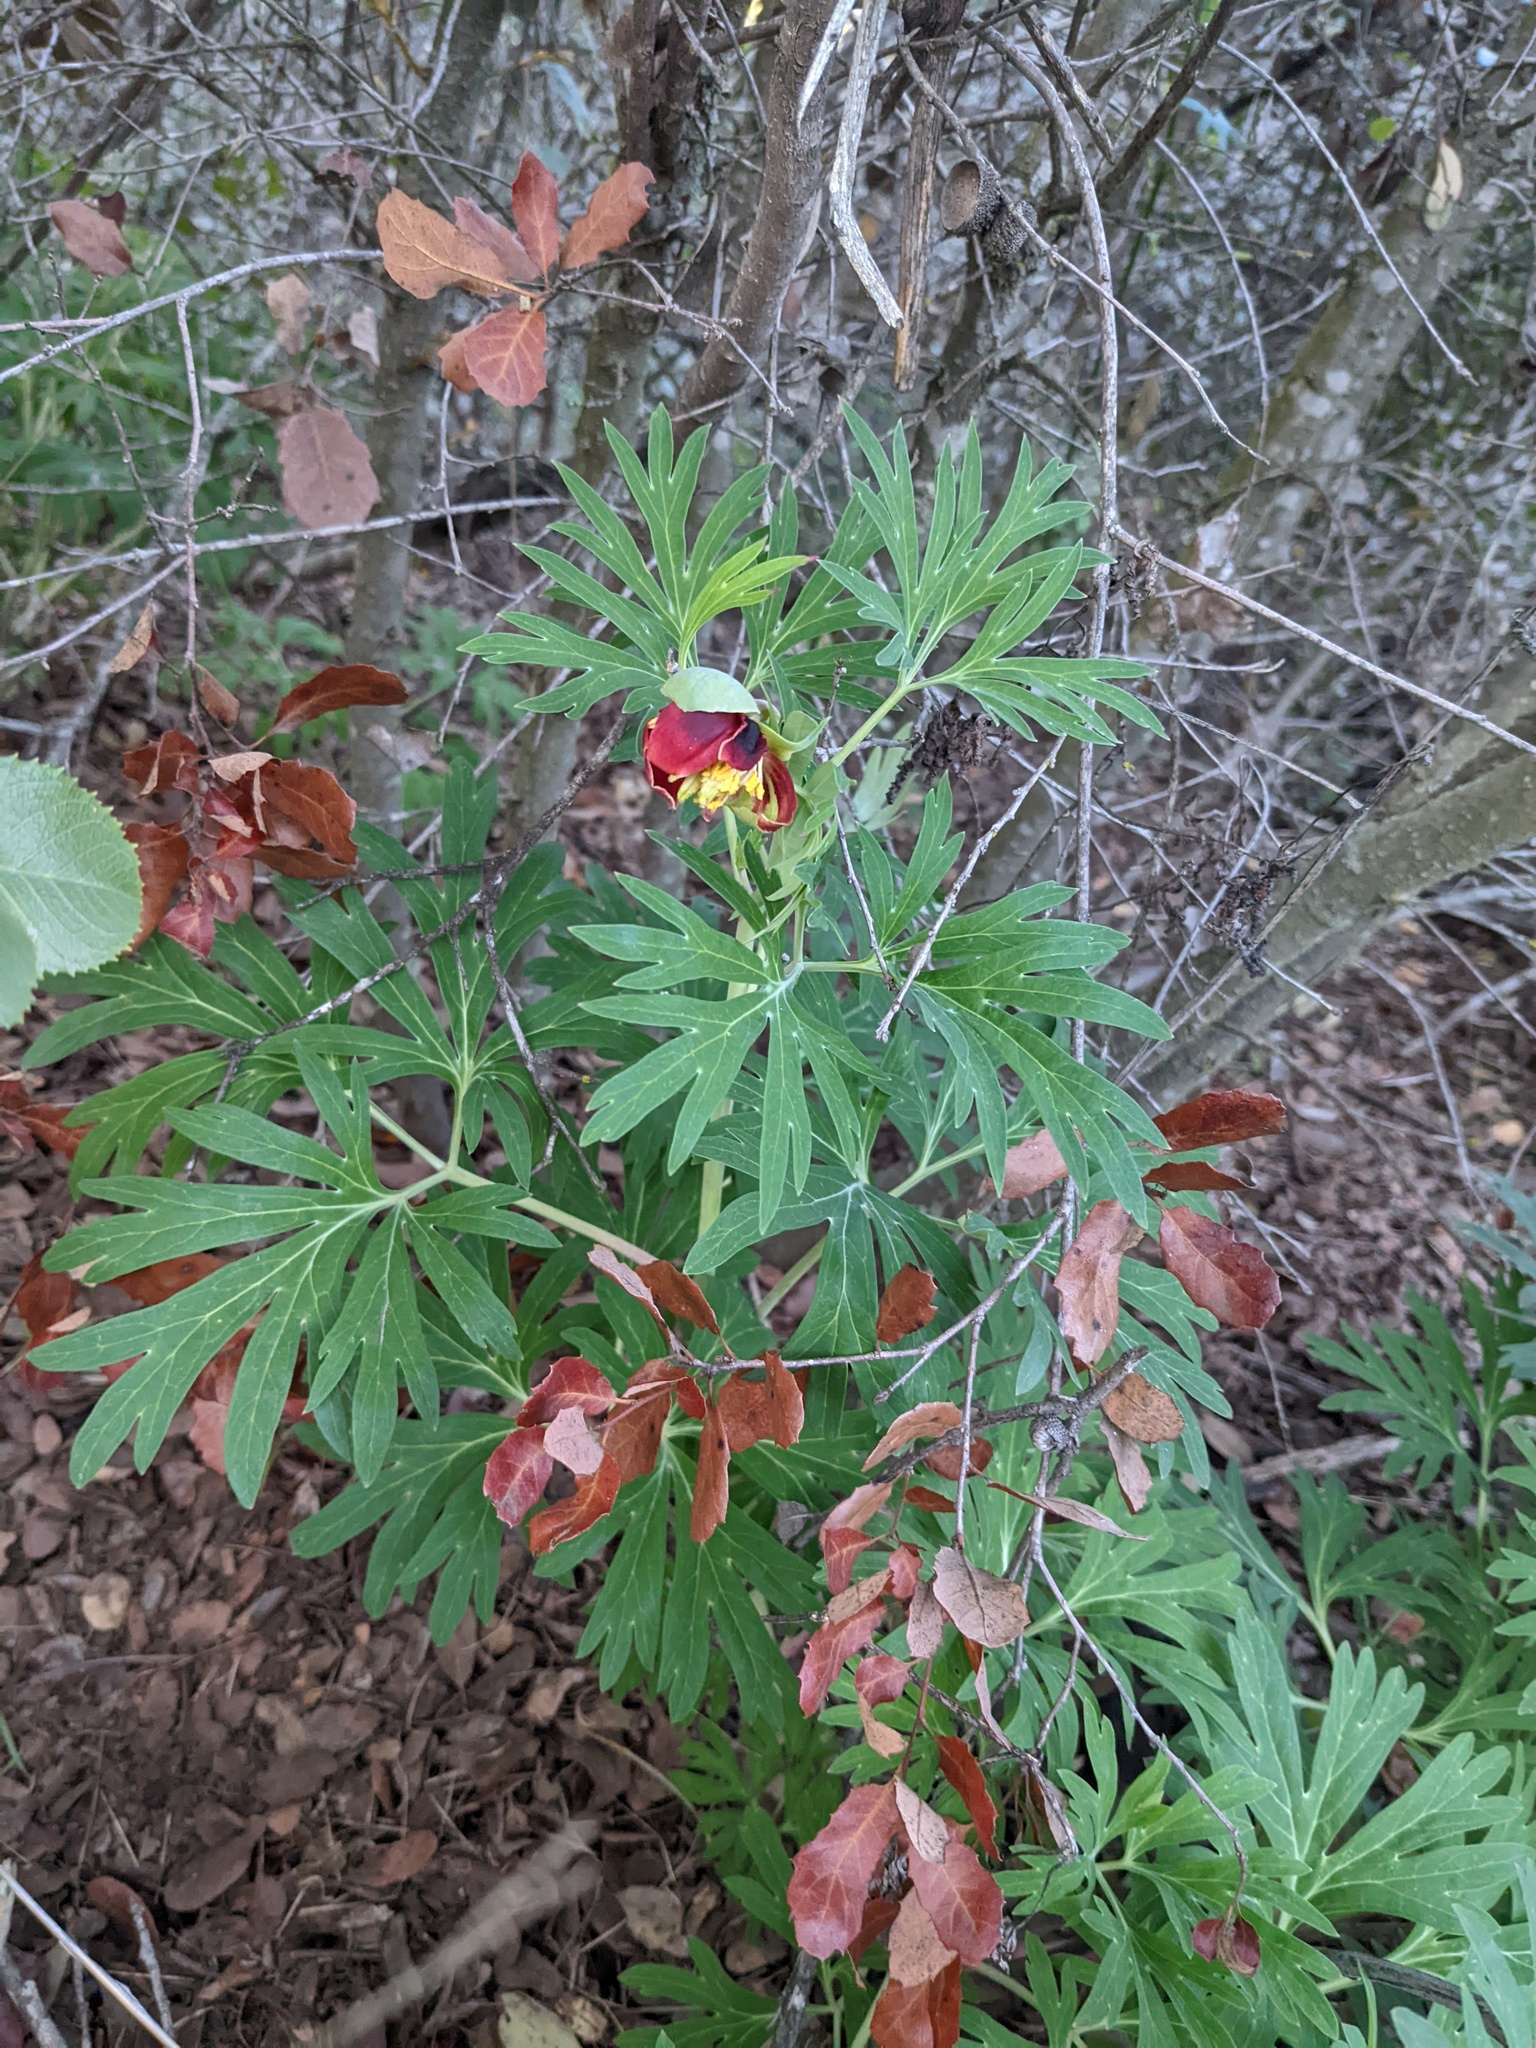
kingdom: Plantae
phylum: Tracheophyta
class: Magnoliopsida
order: Saxifragales
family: Paeoniaceae
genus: Paeonia
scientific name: Paeonia californica
